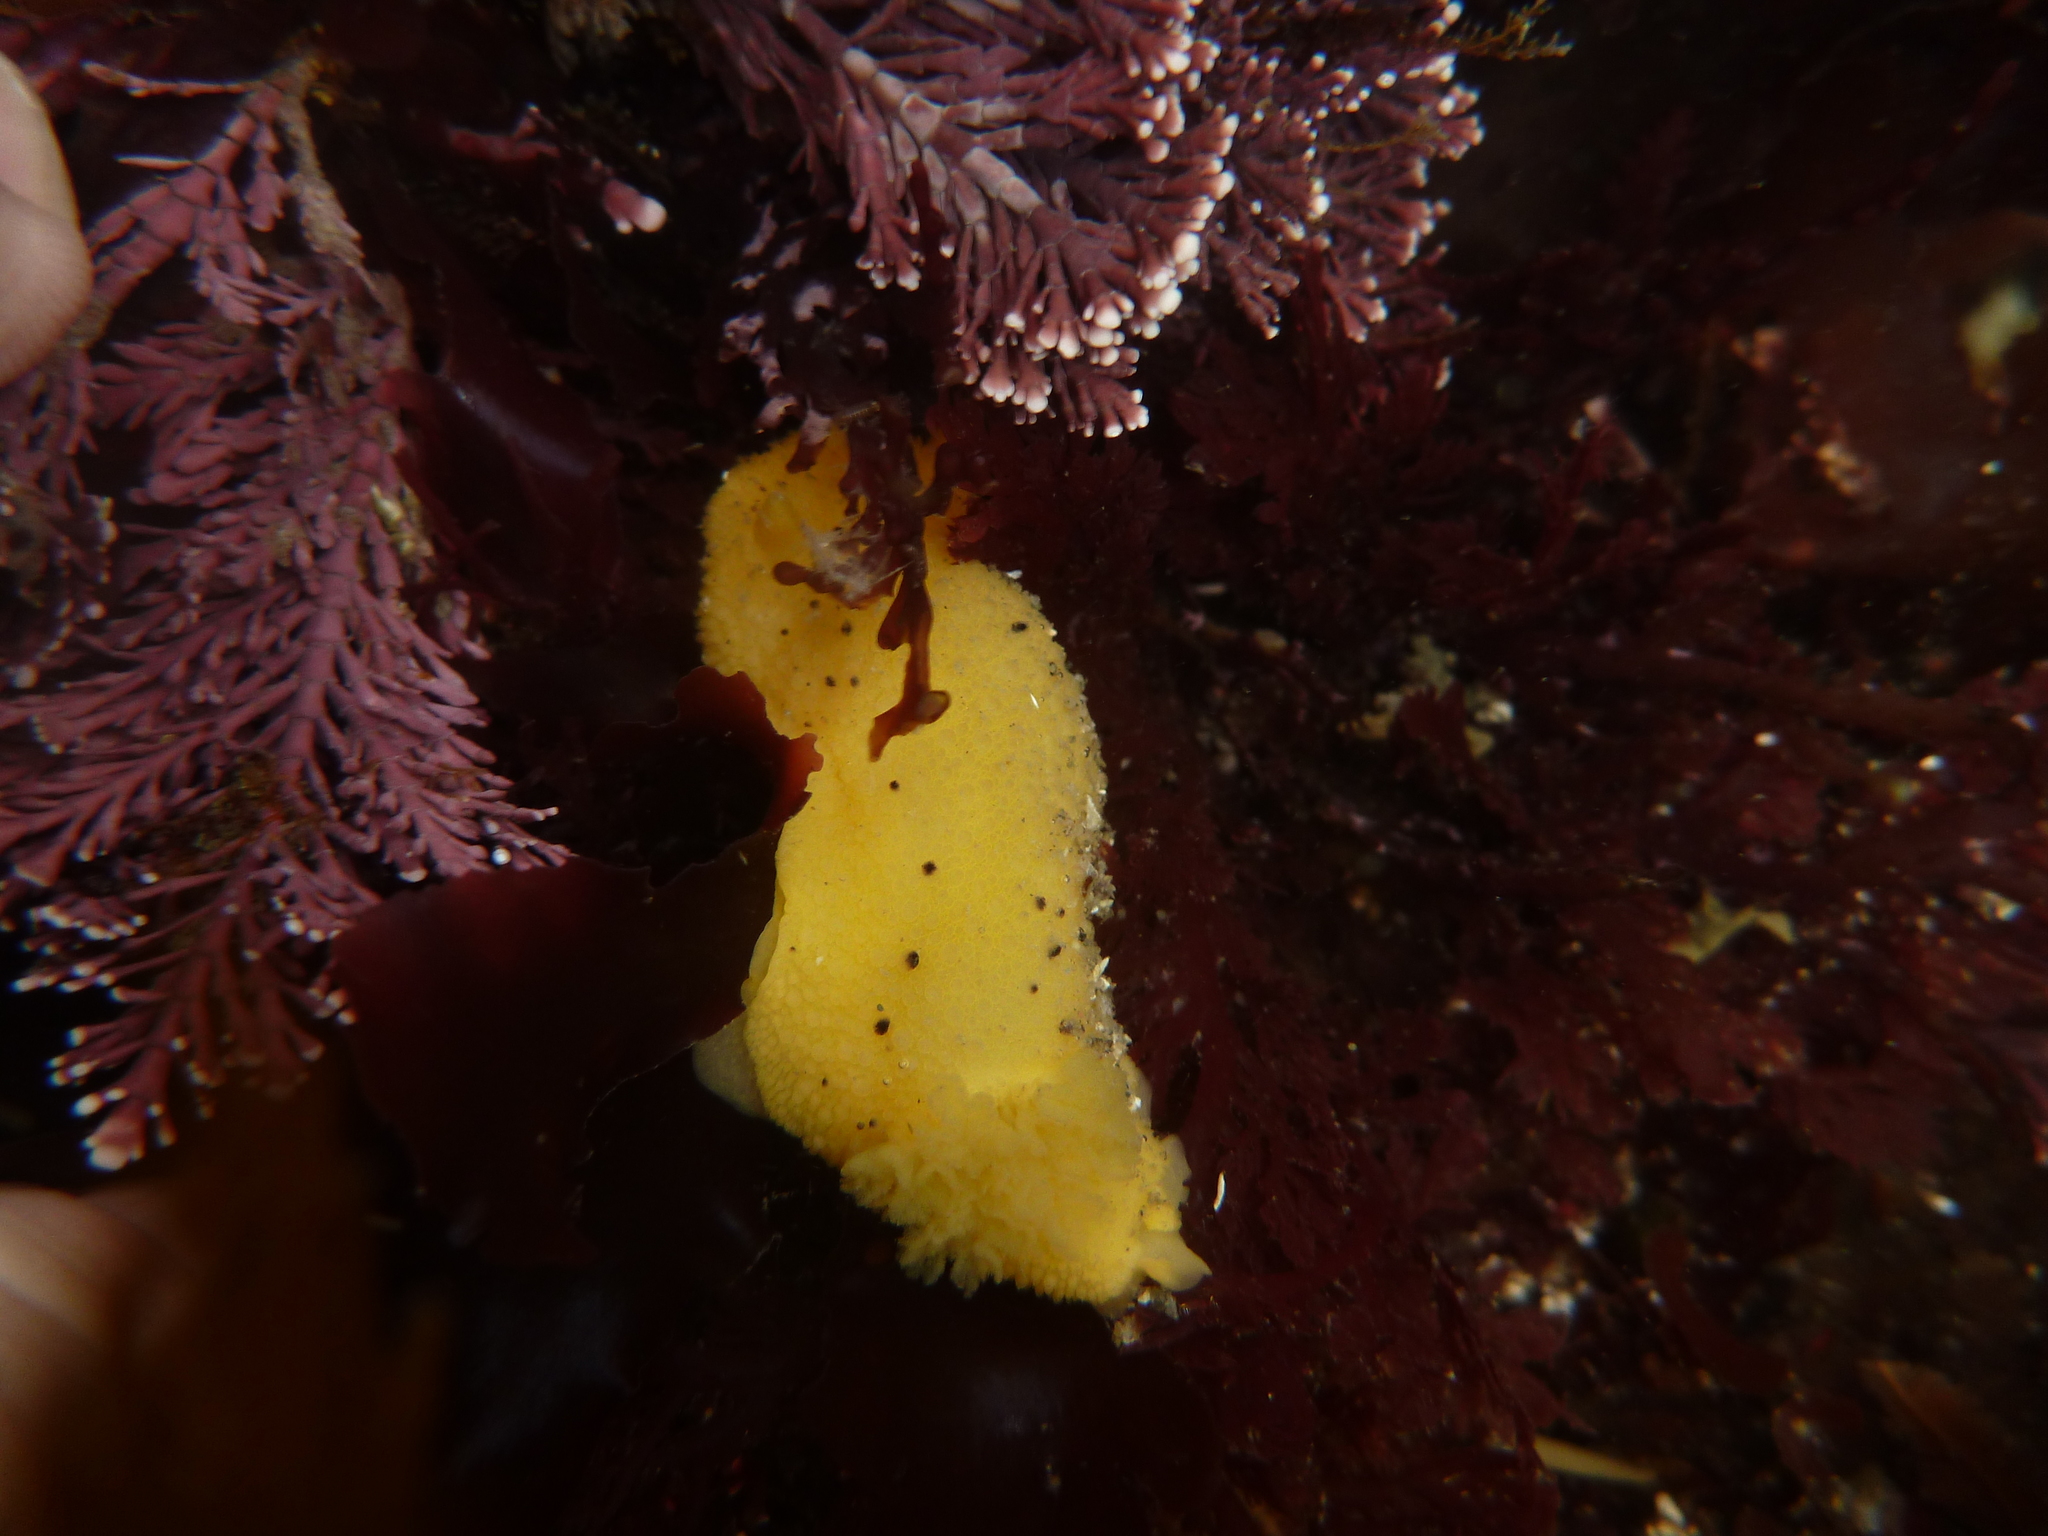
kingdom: Animalia
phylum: Mollusca
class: Gastropoda
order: Nudibranchia
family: Dorididae
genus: Doris
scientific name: Doris montereyensis
